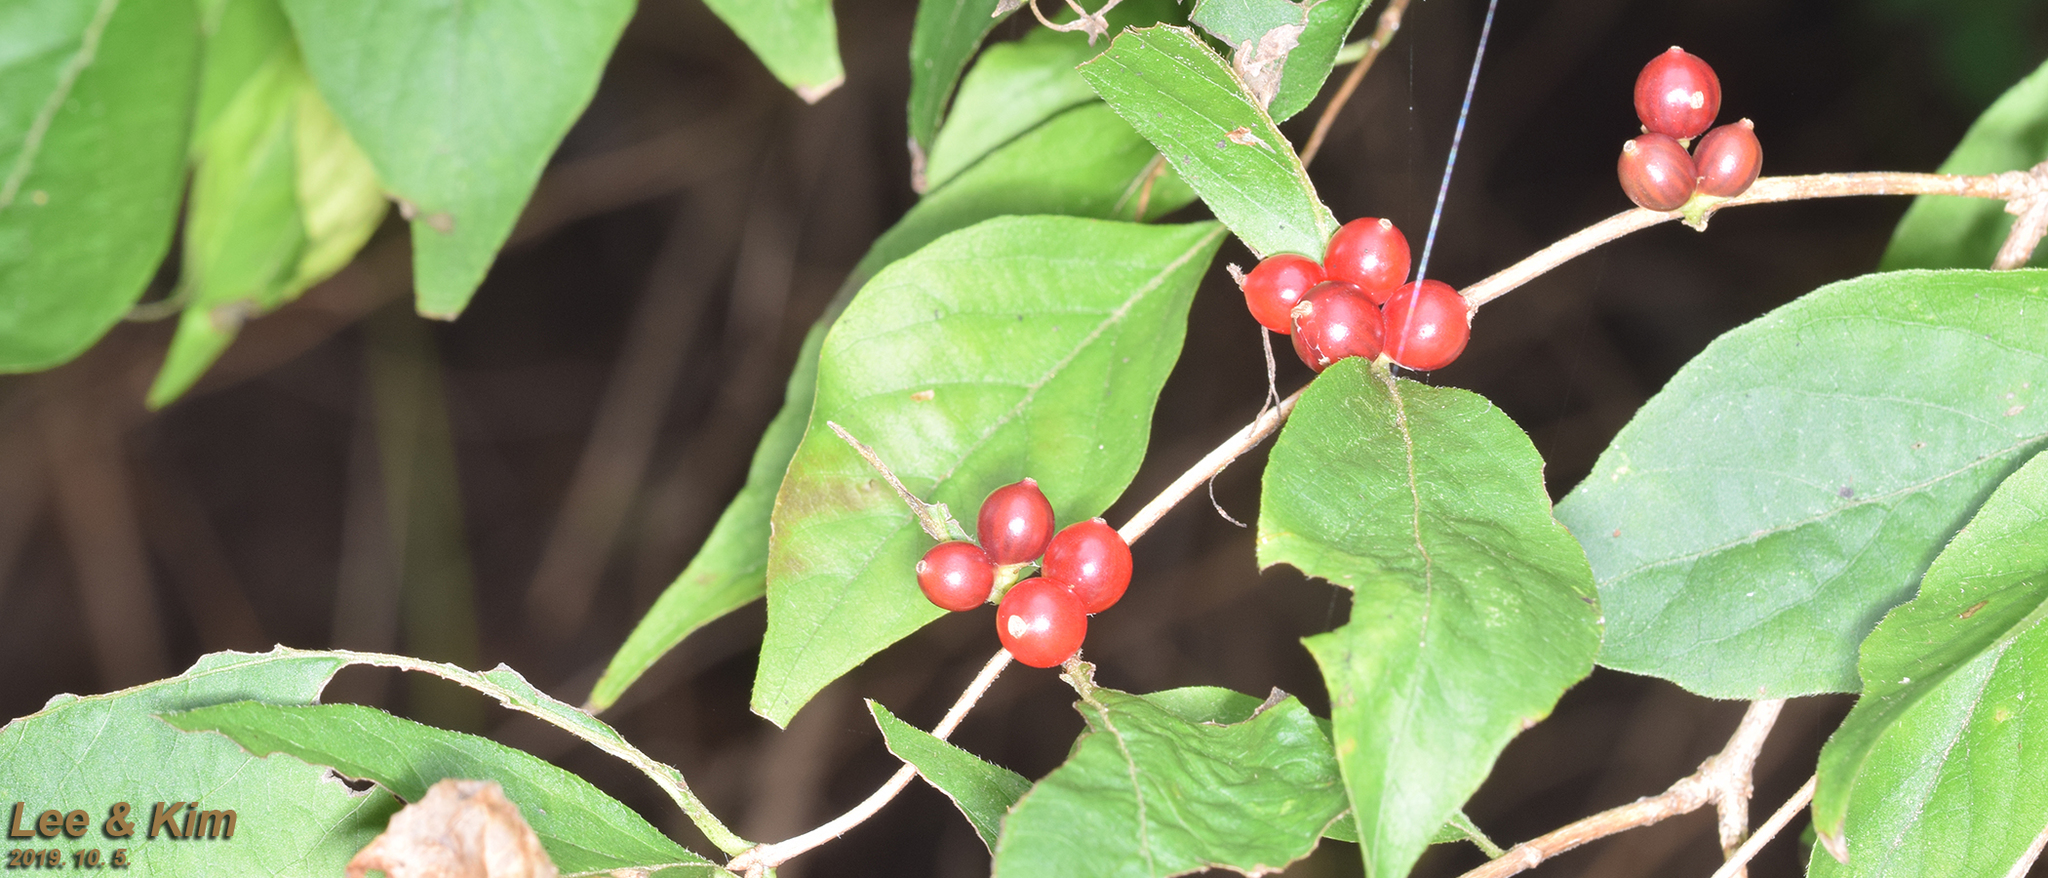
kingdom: Plantae
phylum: Tracheophyta
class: Magnoliopsida
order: Dipsacales
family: Caprifoliaceae
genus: Lonicera
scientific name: Lonicera maackii
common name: Amur honeysuckle
